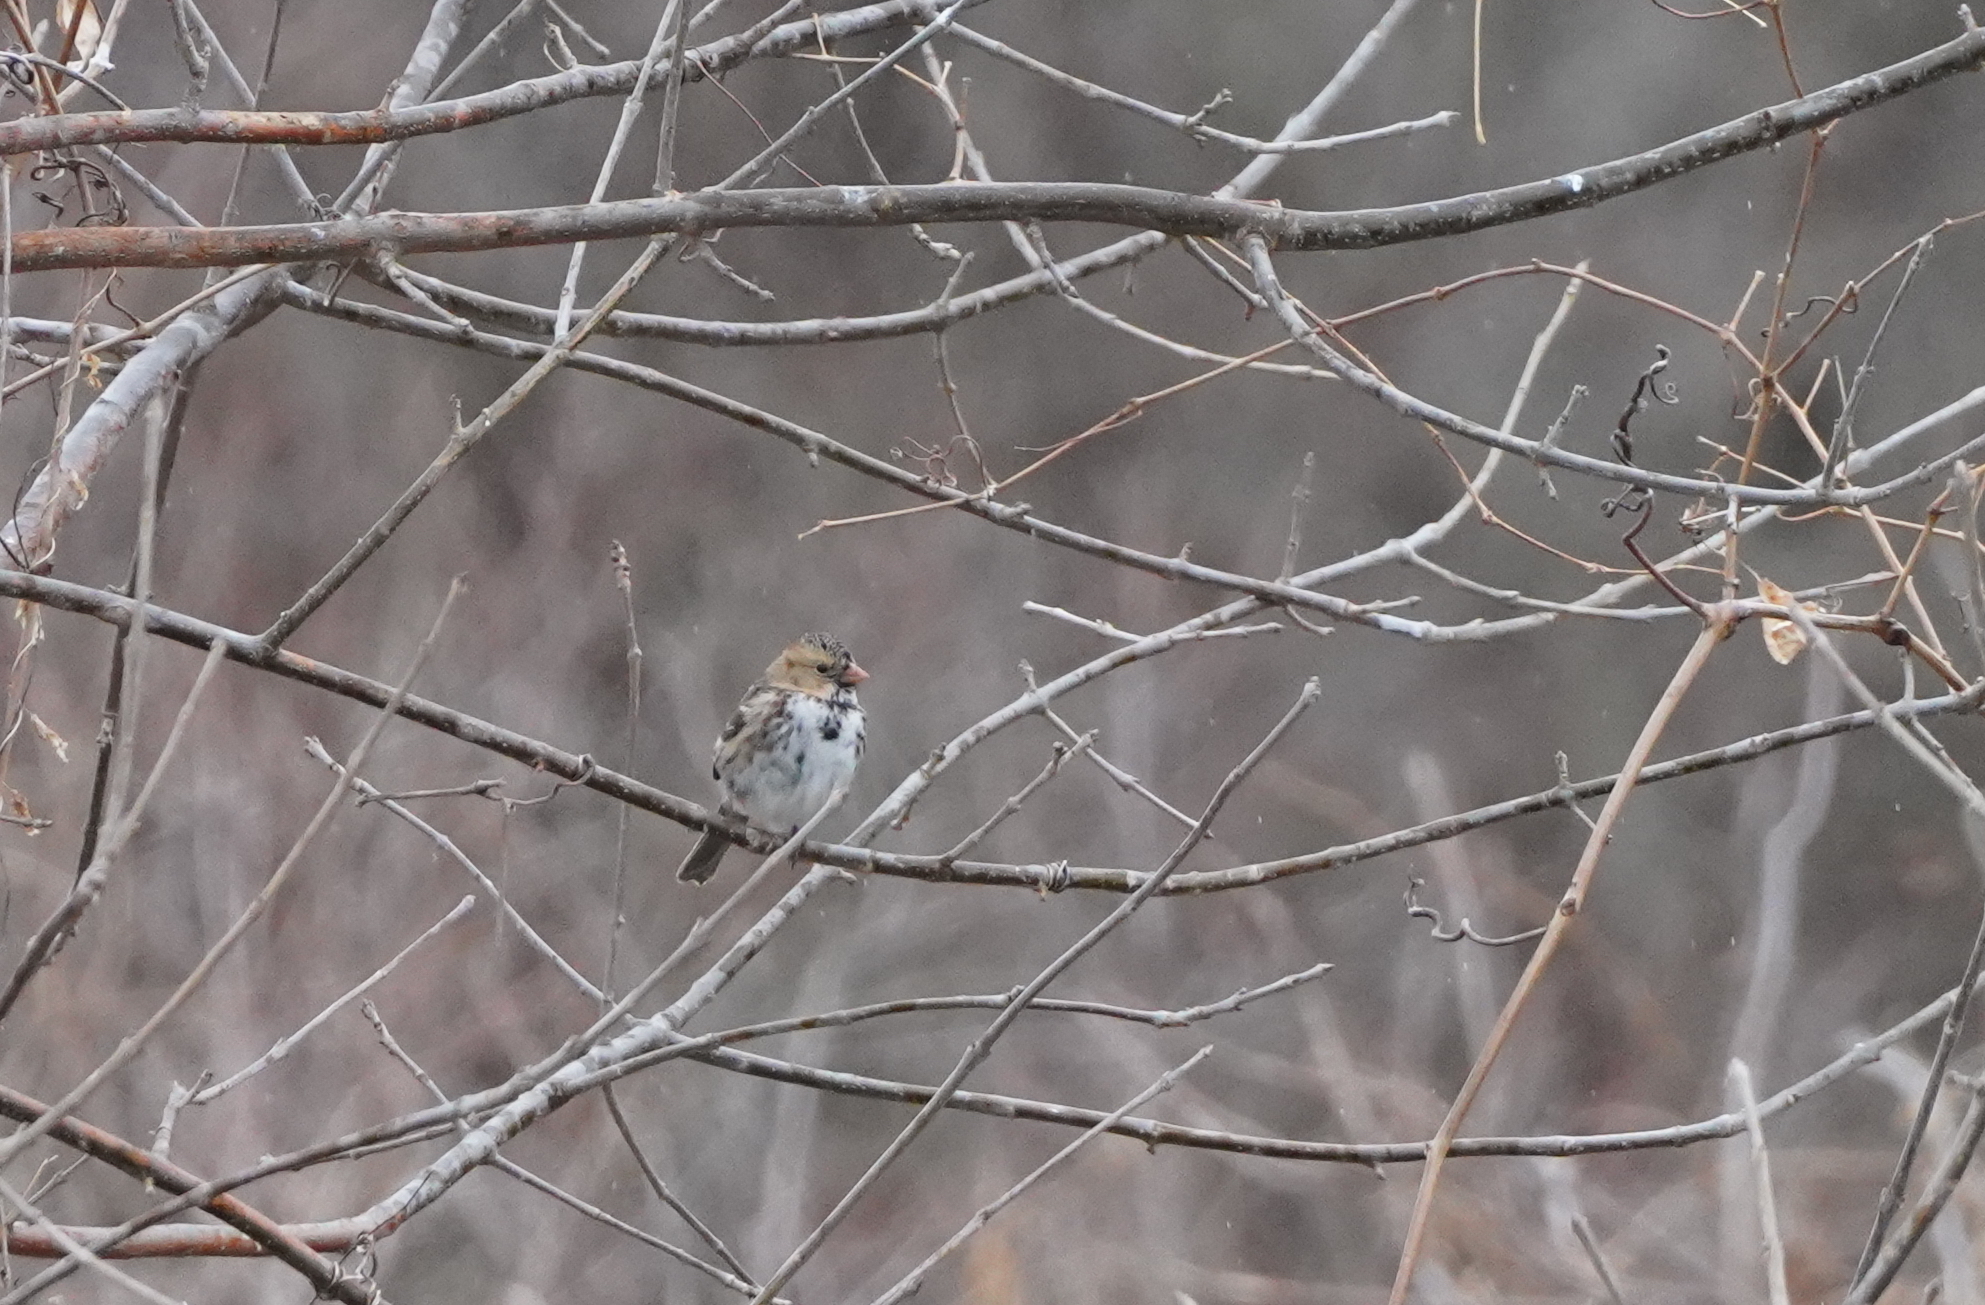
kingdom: Animalia
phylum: Chordata
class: Aves
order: Passeriformes
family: Passerellidae
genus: Zonotrichia
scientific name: Zonotrichia querula
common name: Harris's sparrow
